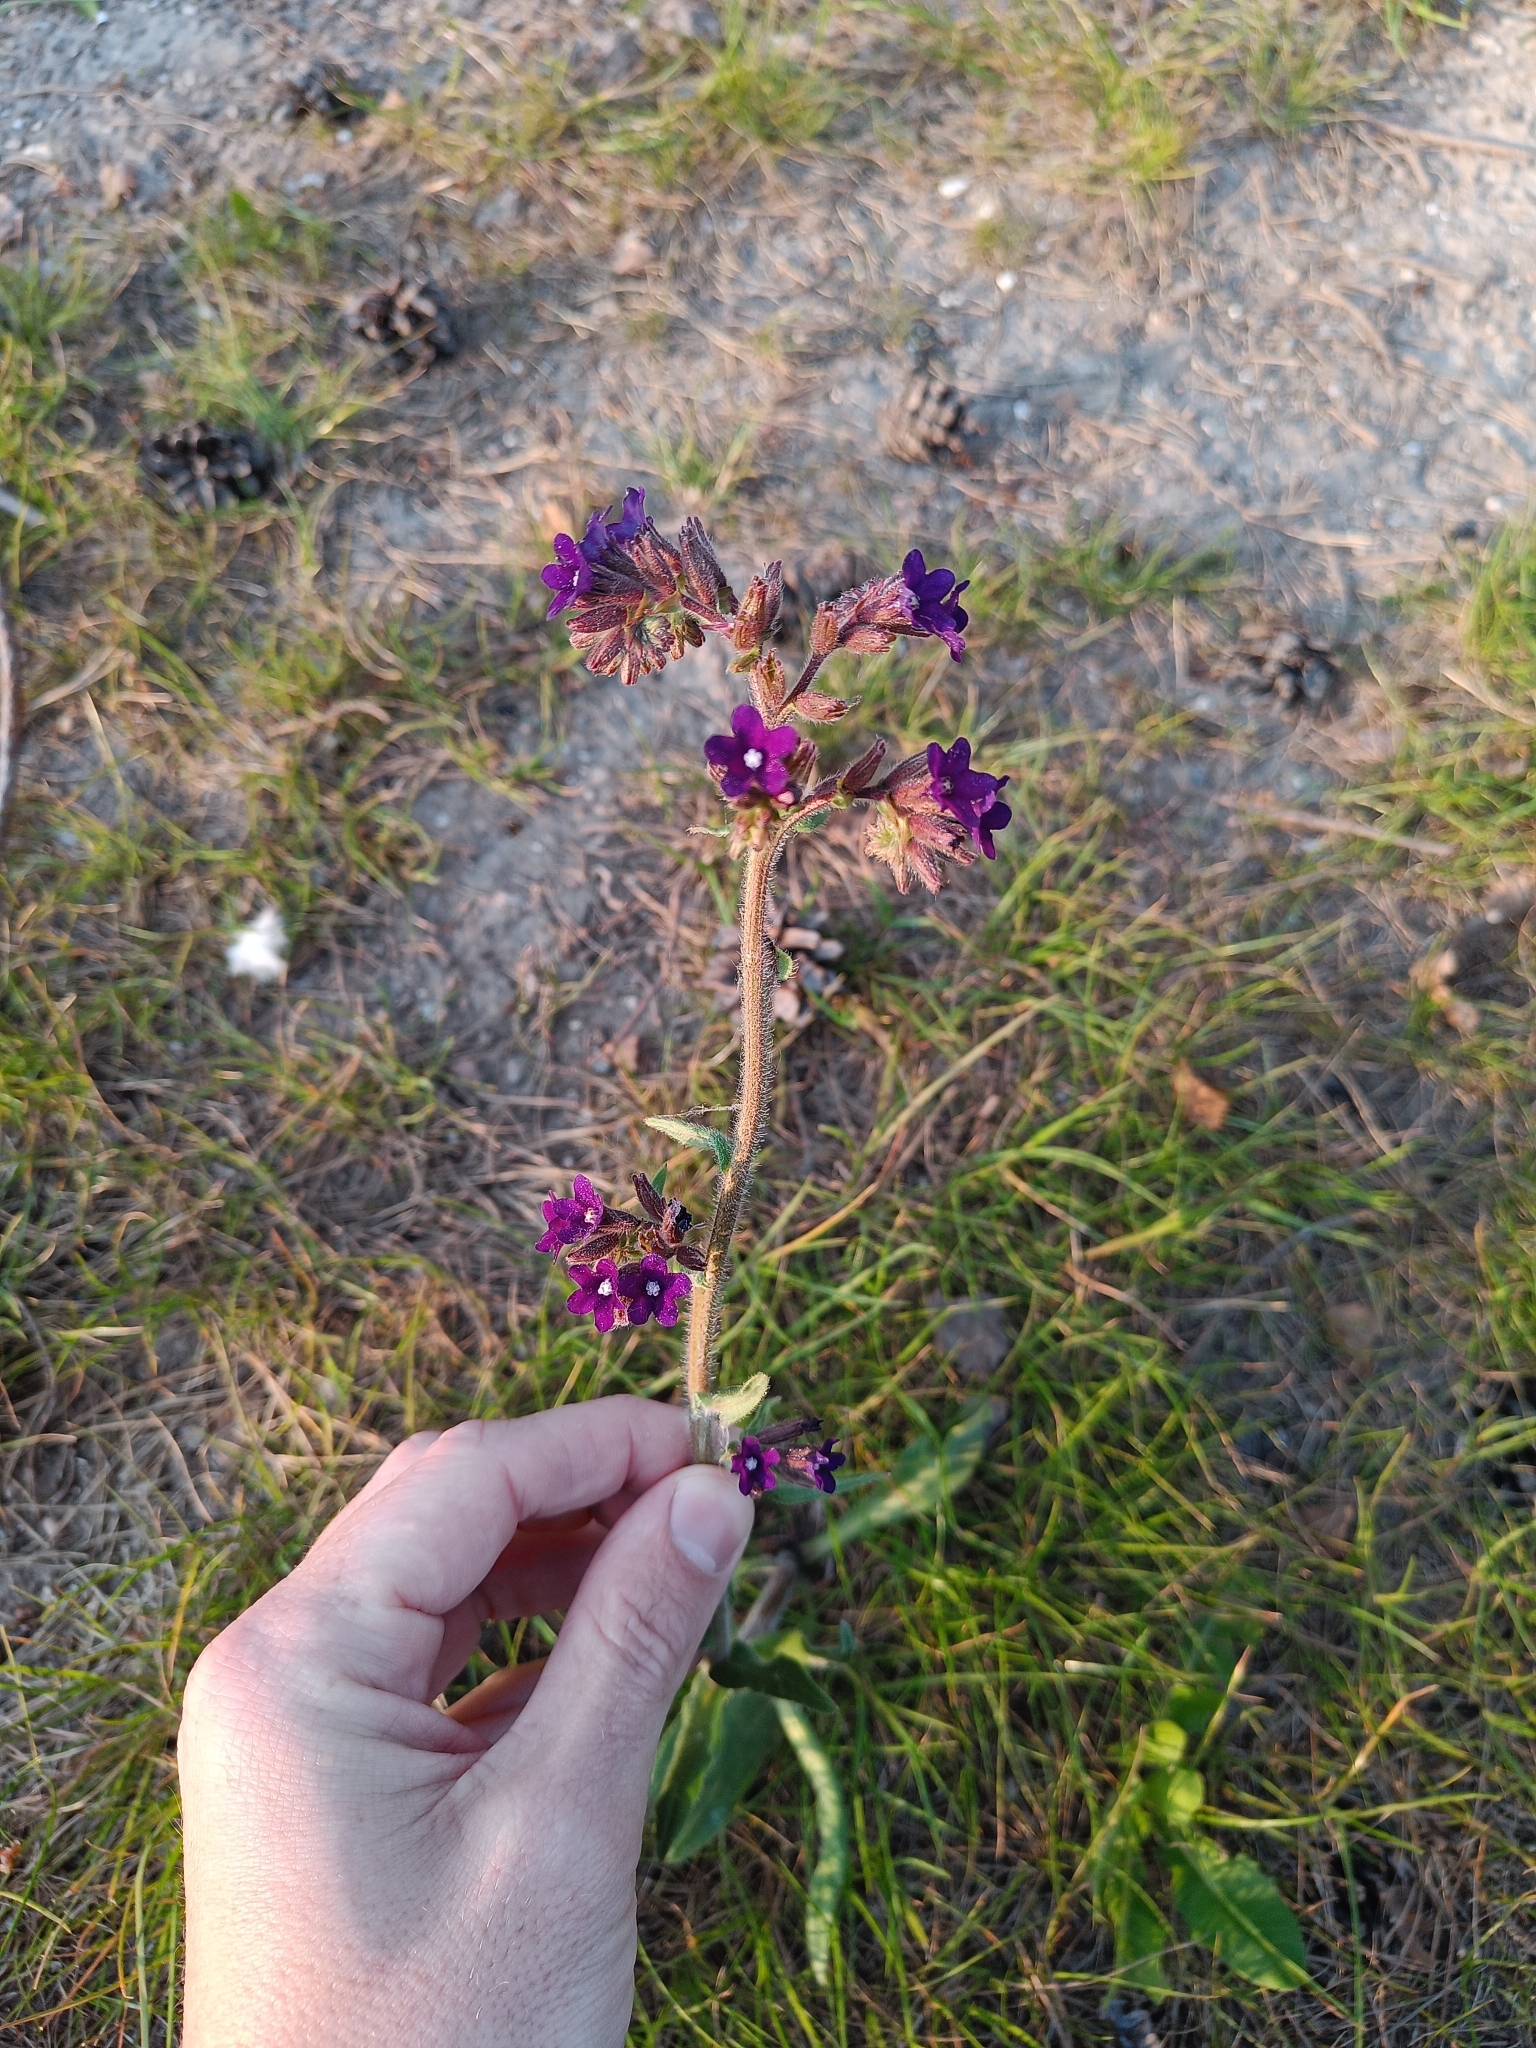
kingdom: Plantae
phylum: Tracheophyta
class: Magnoliopsida
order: Boraginales
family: Boraginaceae
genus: Anchusa
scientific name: Anchusa officinalis
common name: Alkanet
